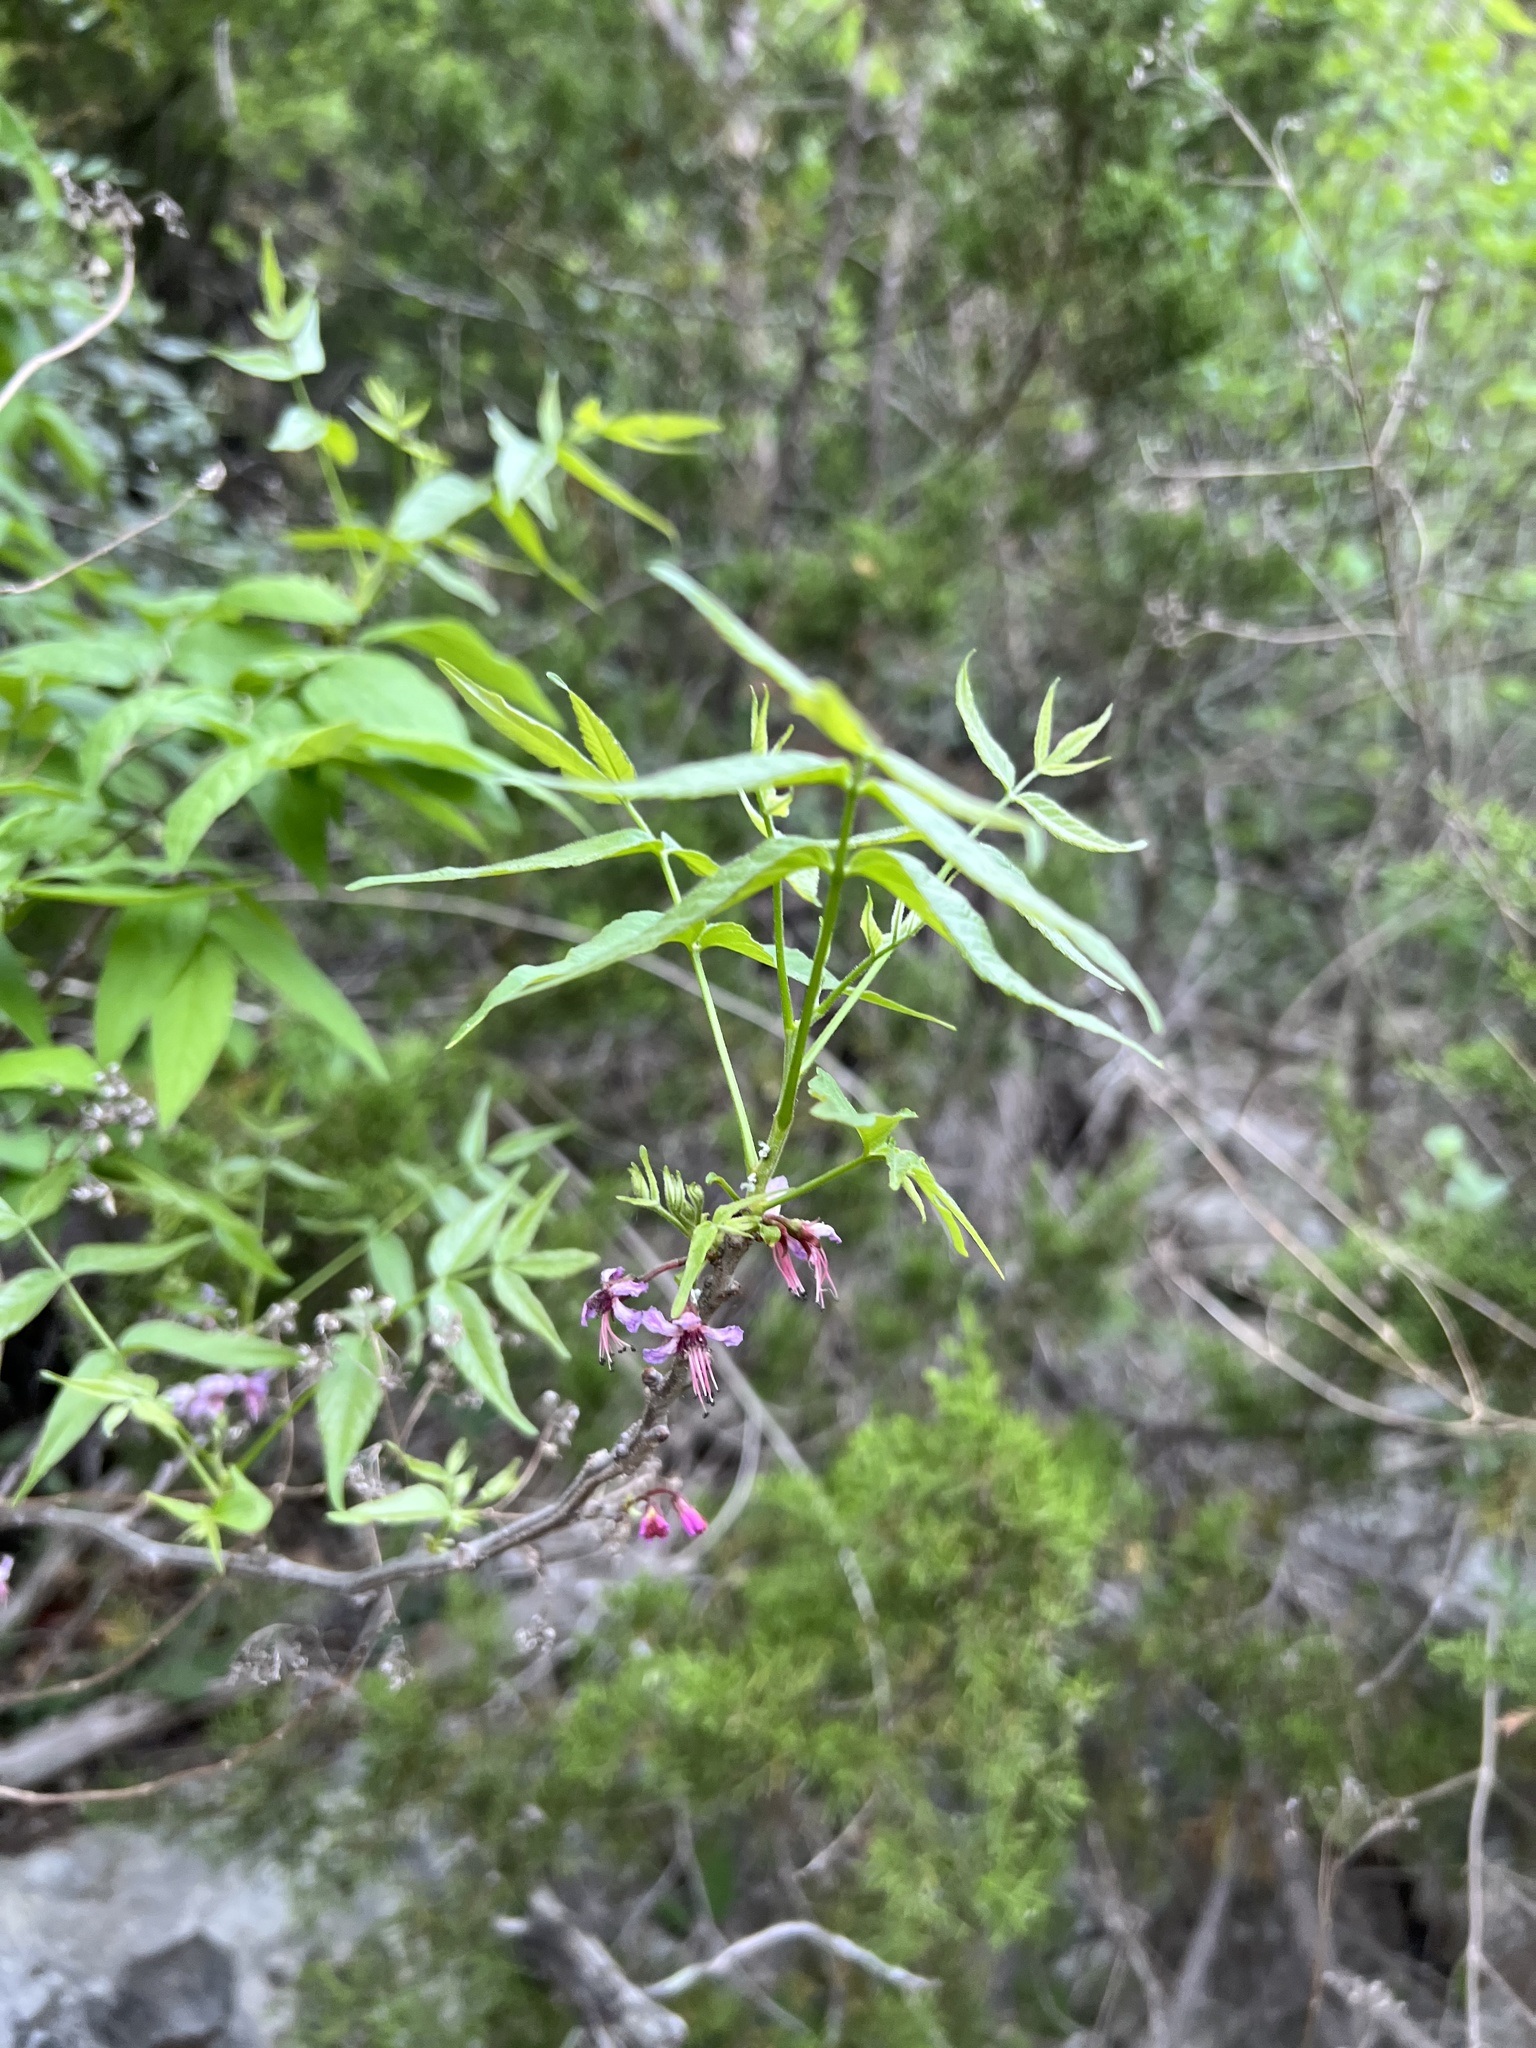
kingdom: Plantae
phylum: Tracheophyta
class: Magnoliopsida
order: Sapindales
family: Sapindaceae
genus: Ungnadia
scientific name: Ungnadia speciosa
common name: Texas-buckeye
